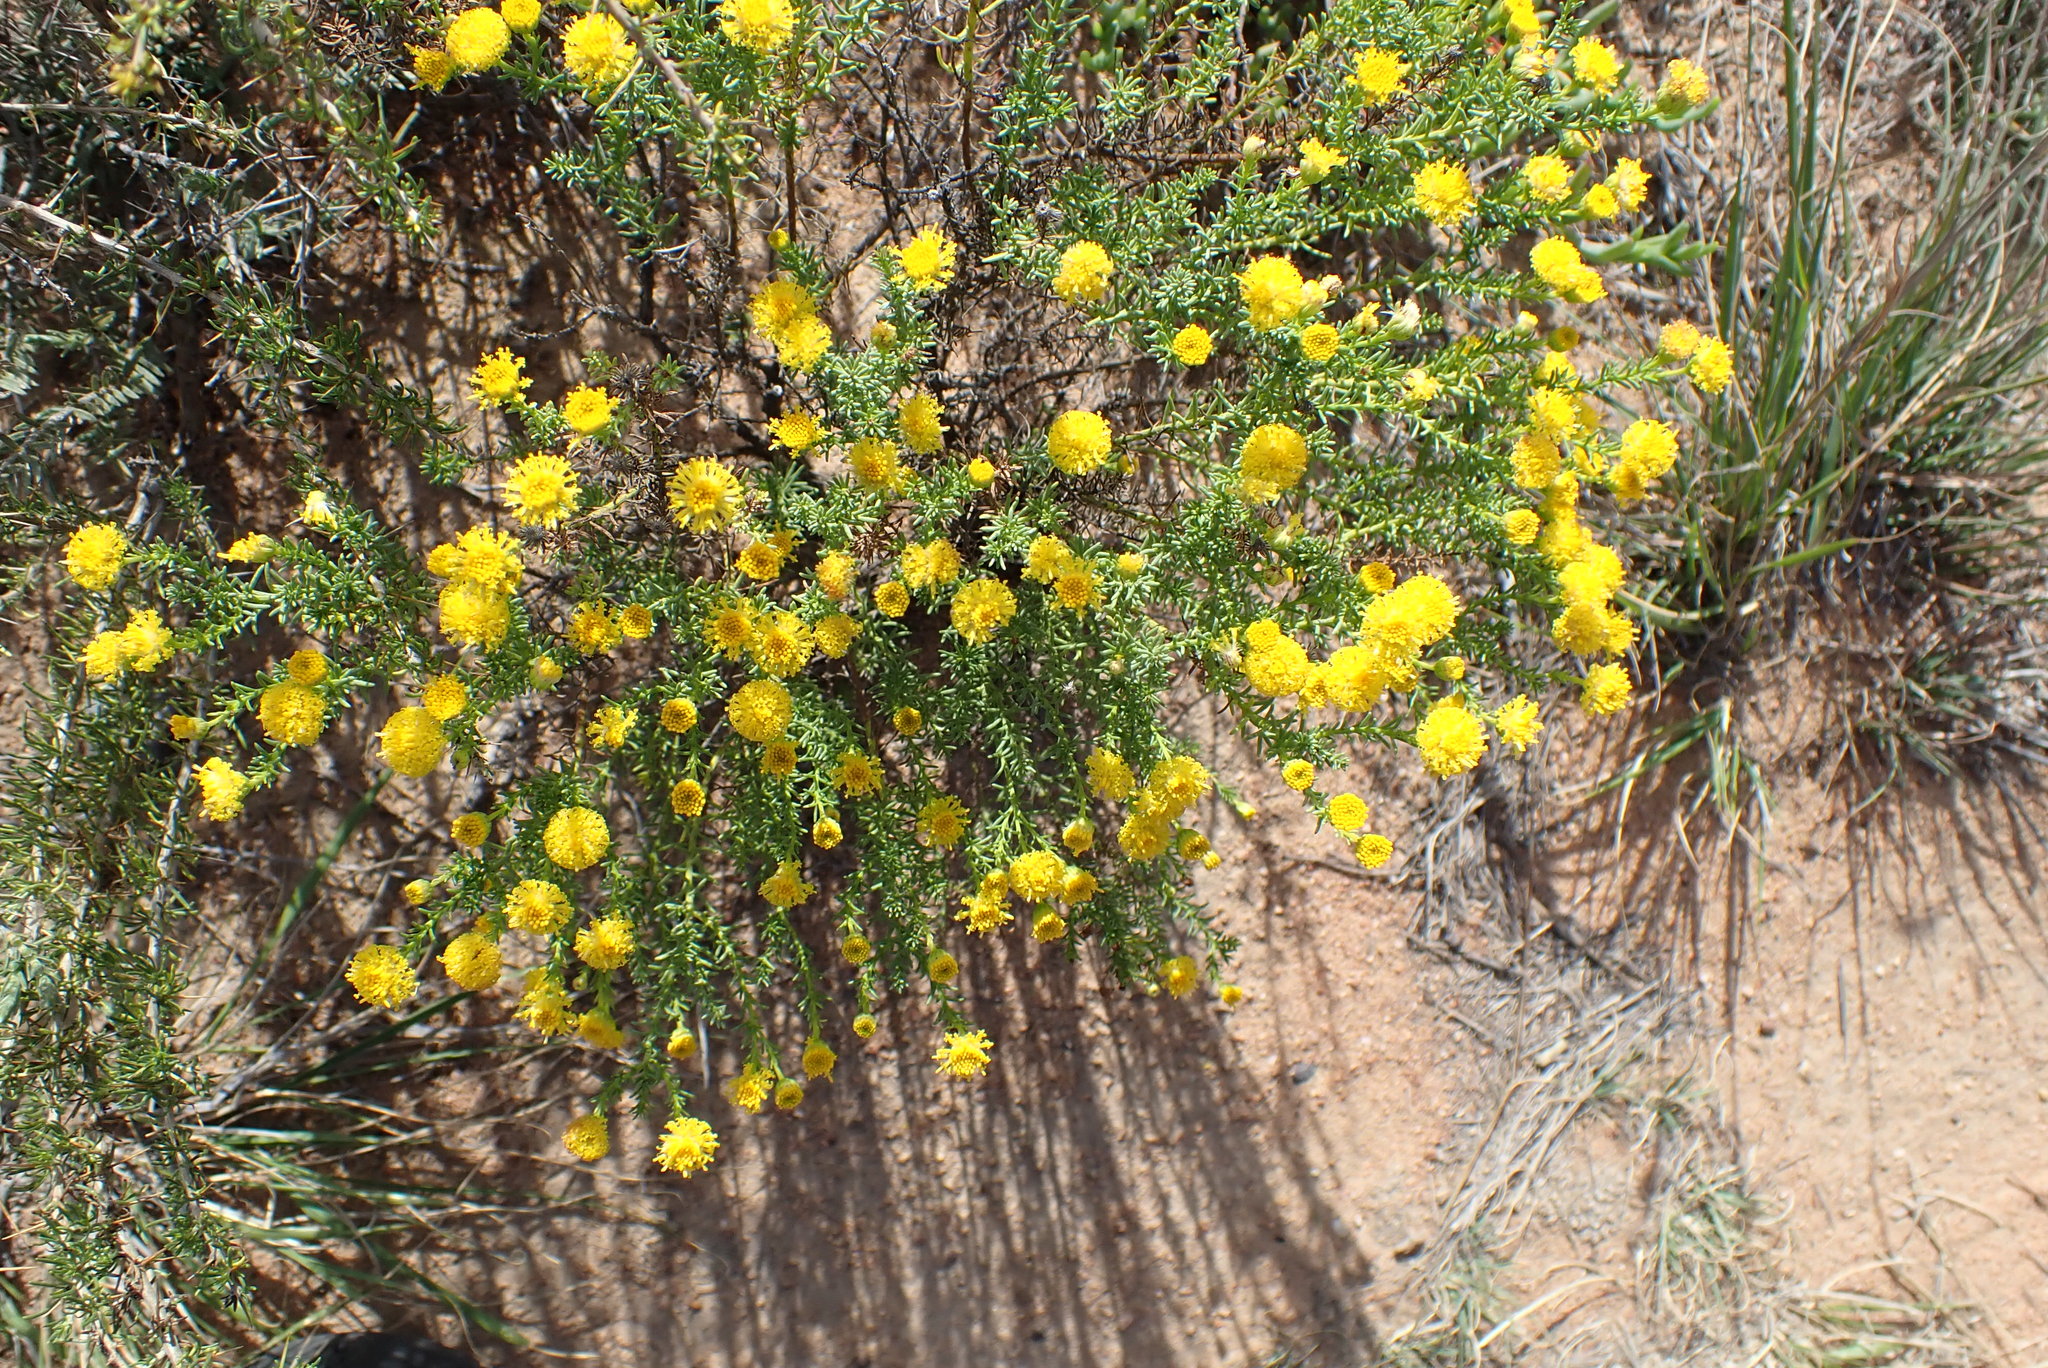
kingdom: Plantae
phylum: Tracheophyta
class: Magnoliopsida
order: Asterales
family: Asteraceae
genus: Chrysocoma
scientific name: Chrysocoma ciliata
